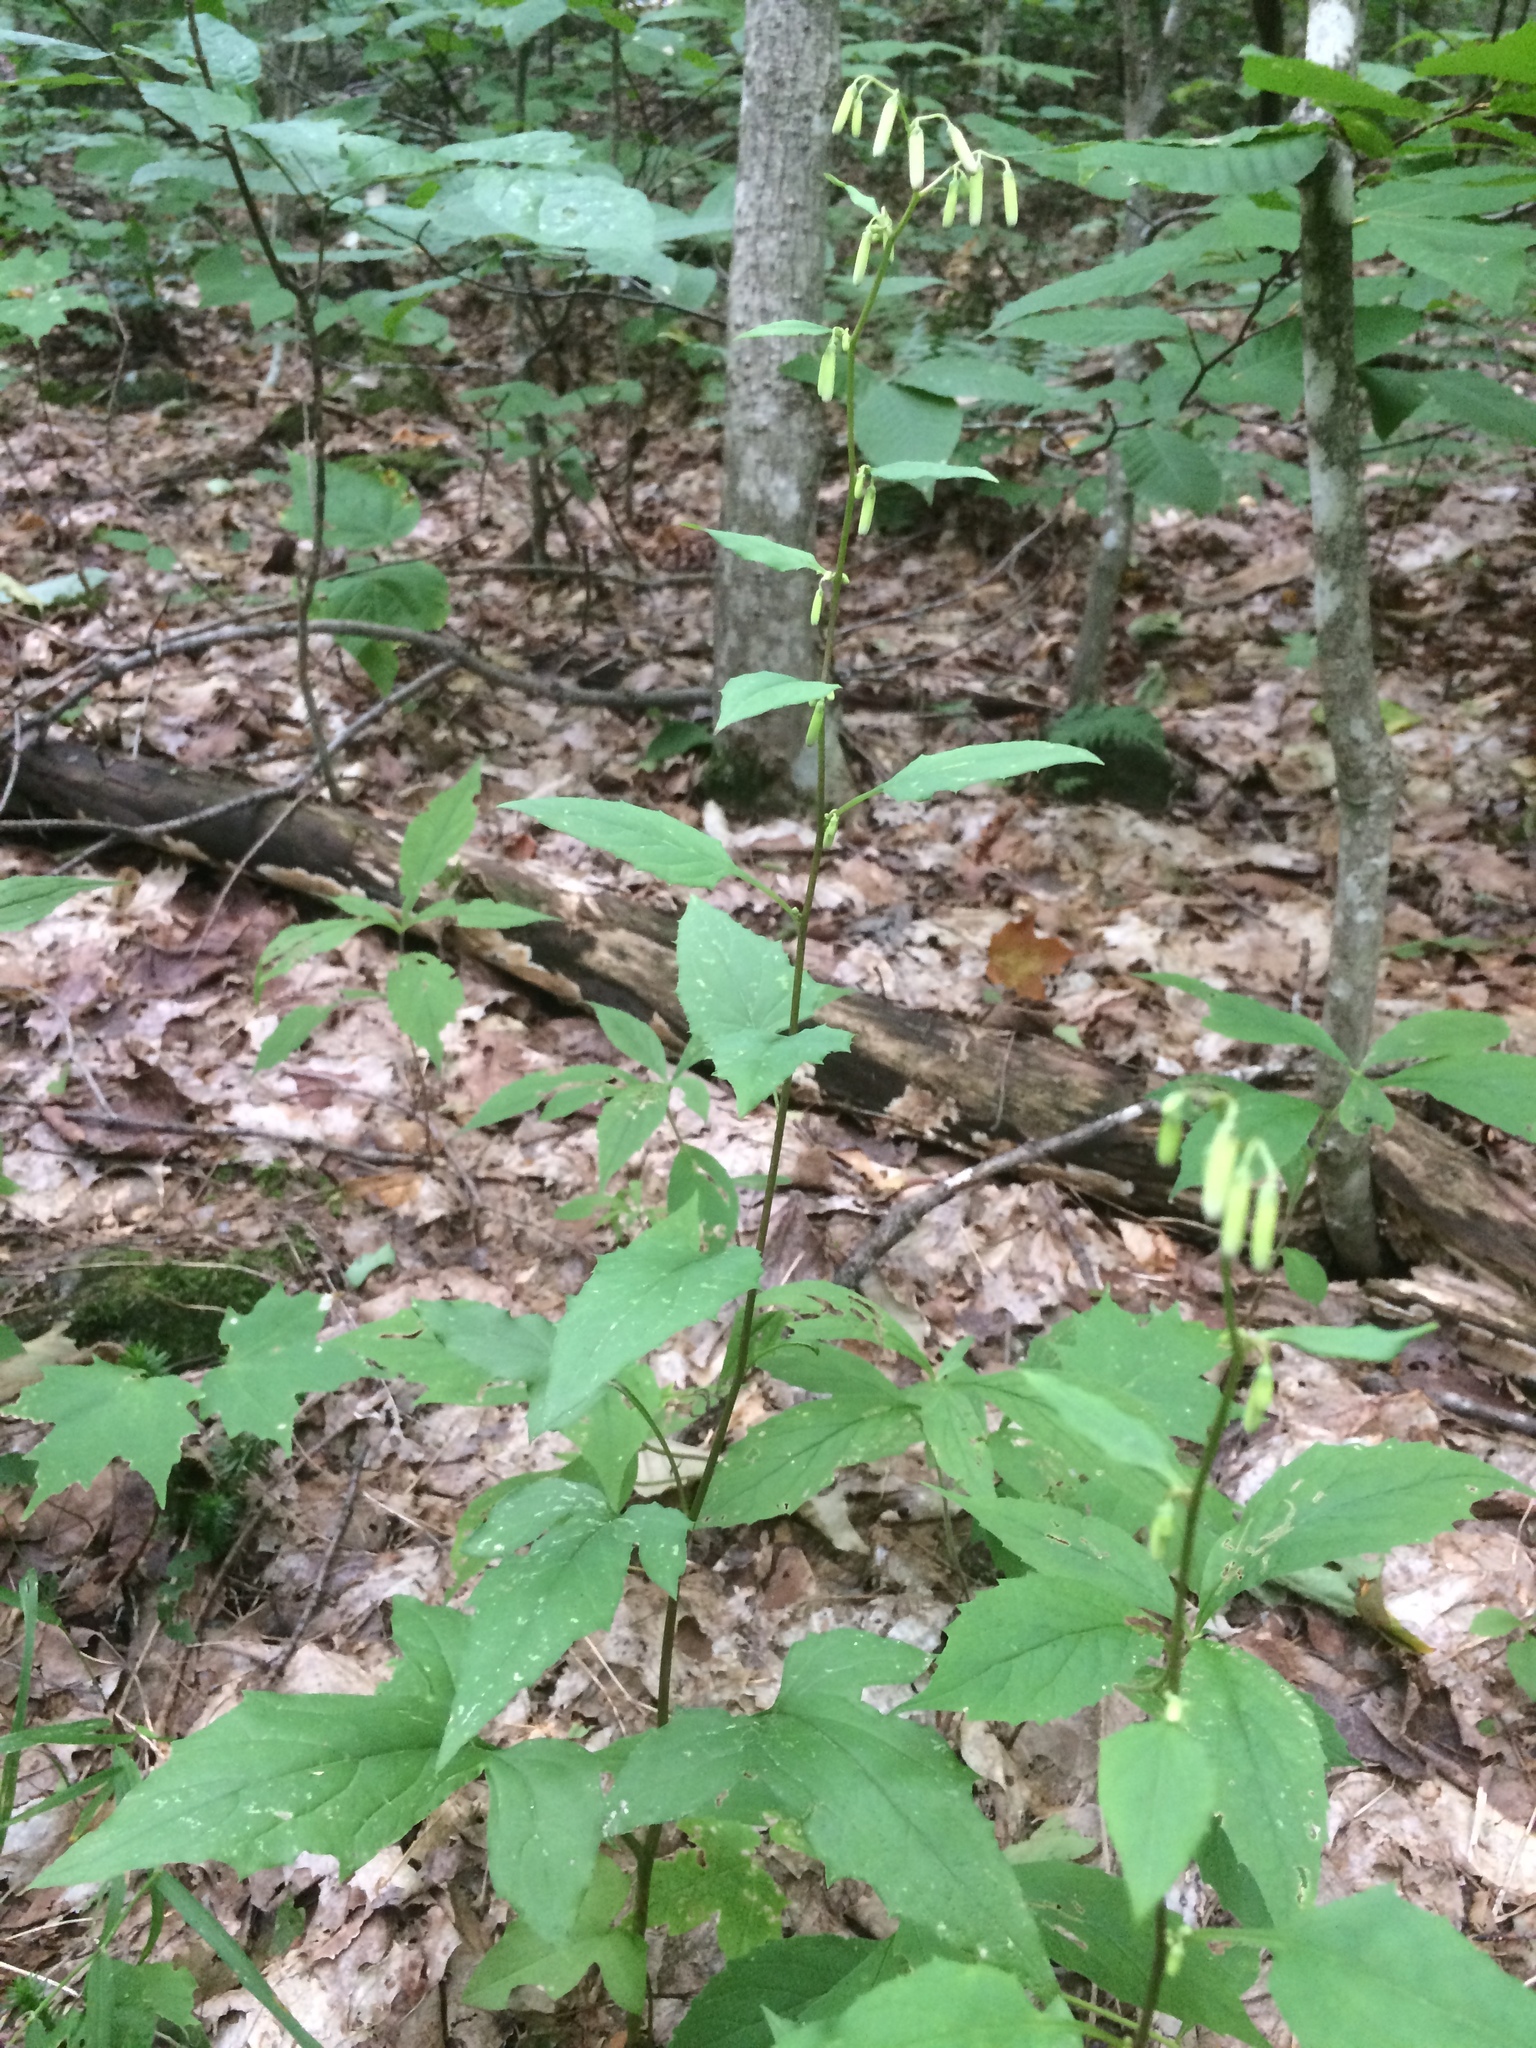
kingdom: Plantae
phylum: Tracheophyta
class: Magnoliopsida
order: Asterales
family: Asteraceae
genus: Nabalus
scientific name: Nabalus altissima
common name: Tall rattlesnakeroot
